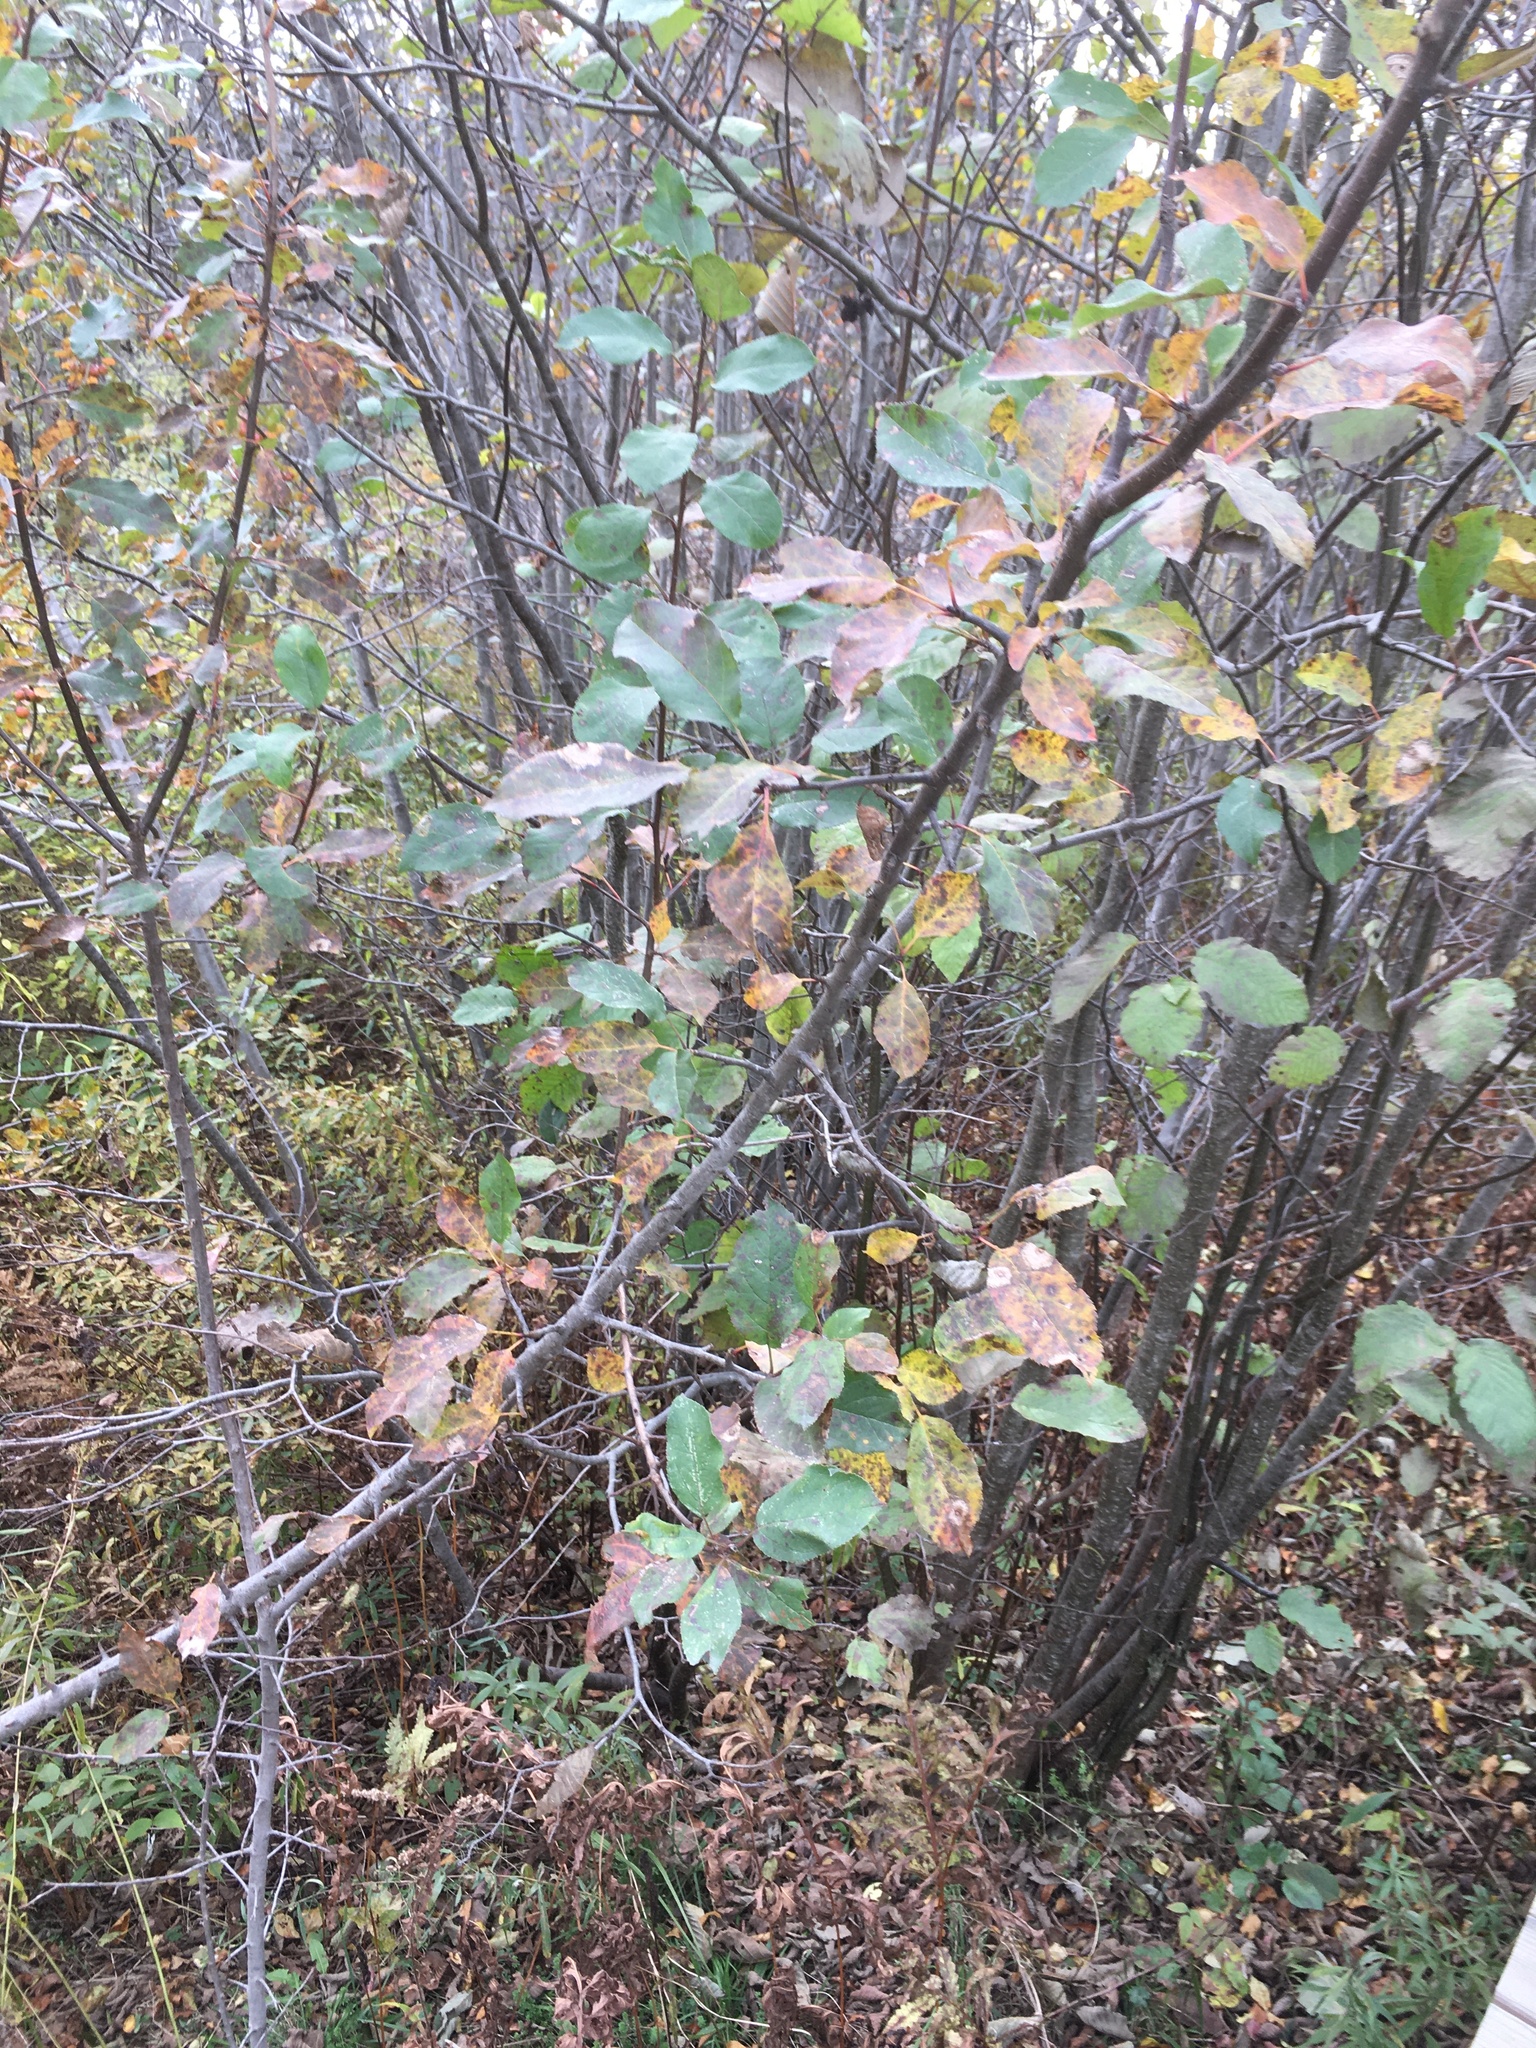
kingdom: Plantae
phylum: Tracheophyta
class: Magnoliopsida
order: Rosales
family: Rosaceae
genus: Malus
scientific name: Malus domestica
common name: Apple
